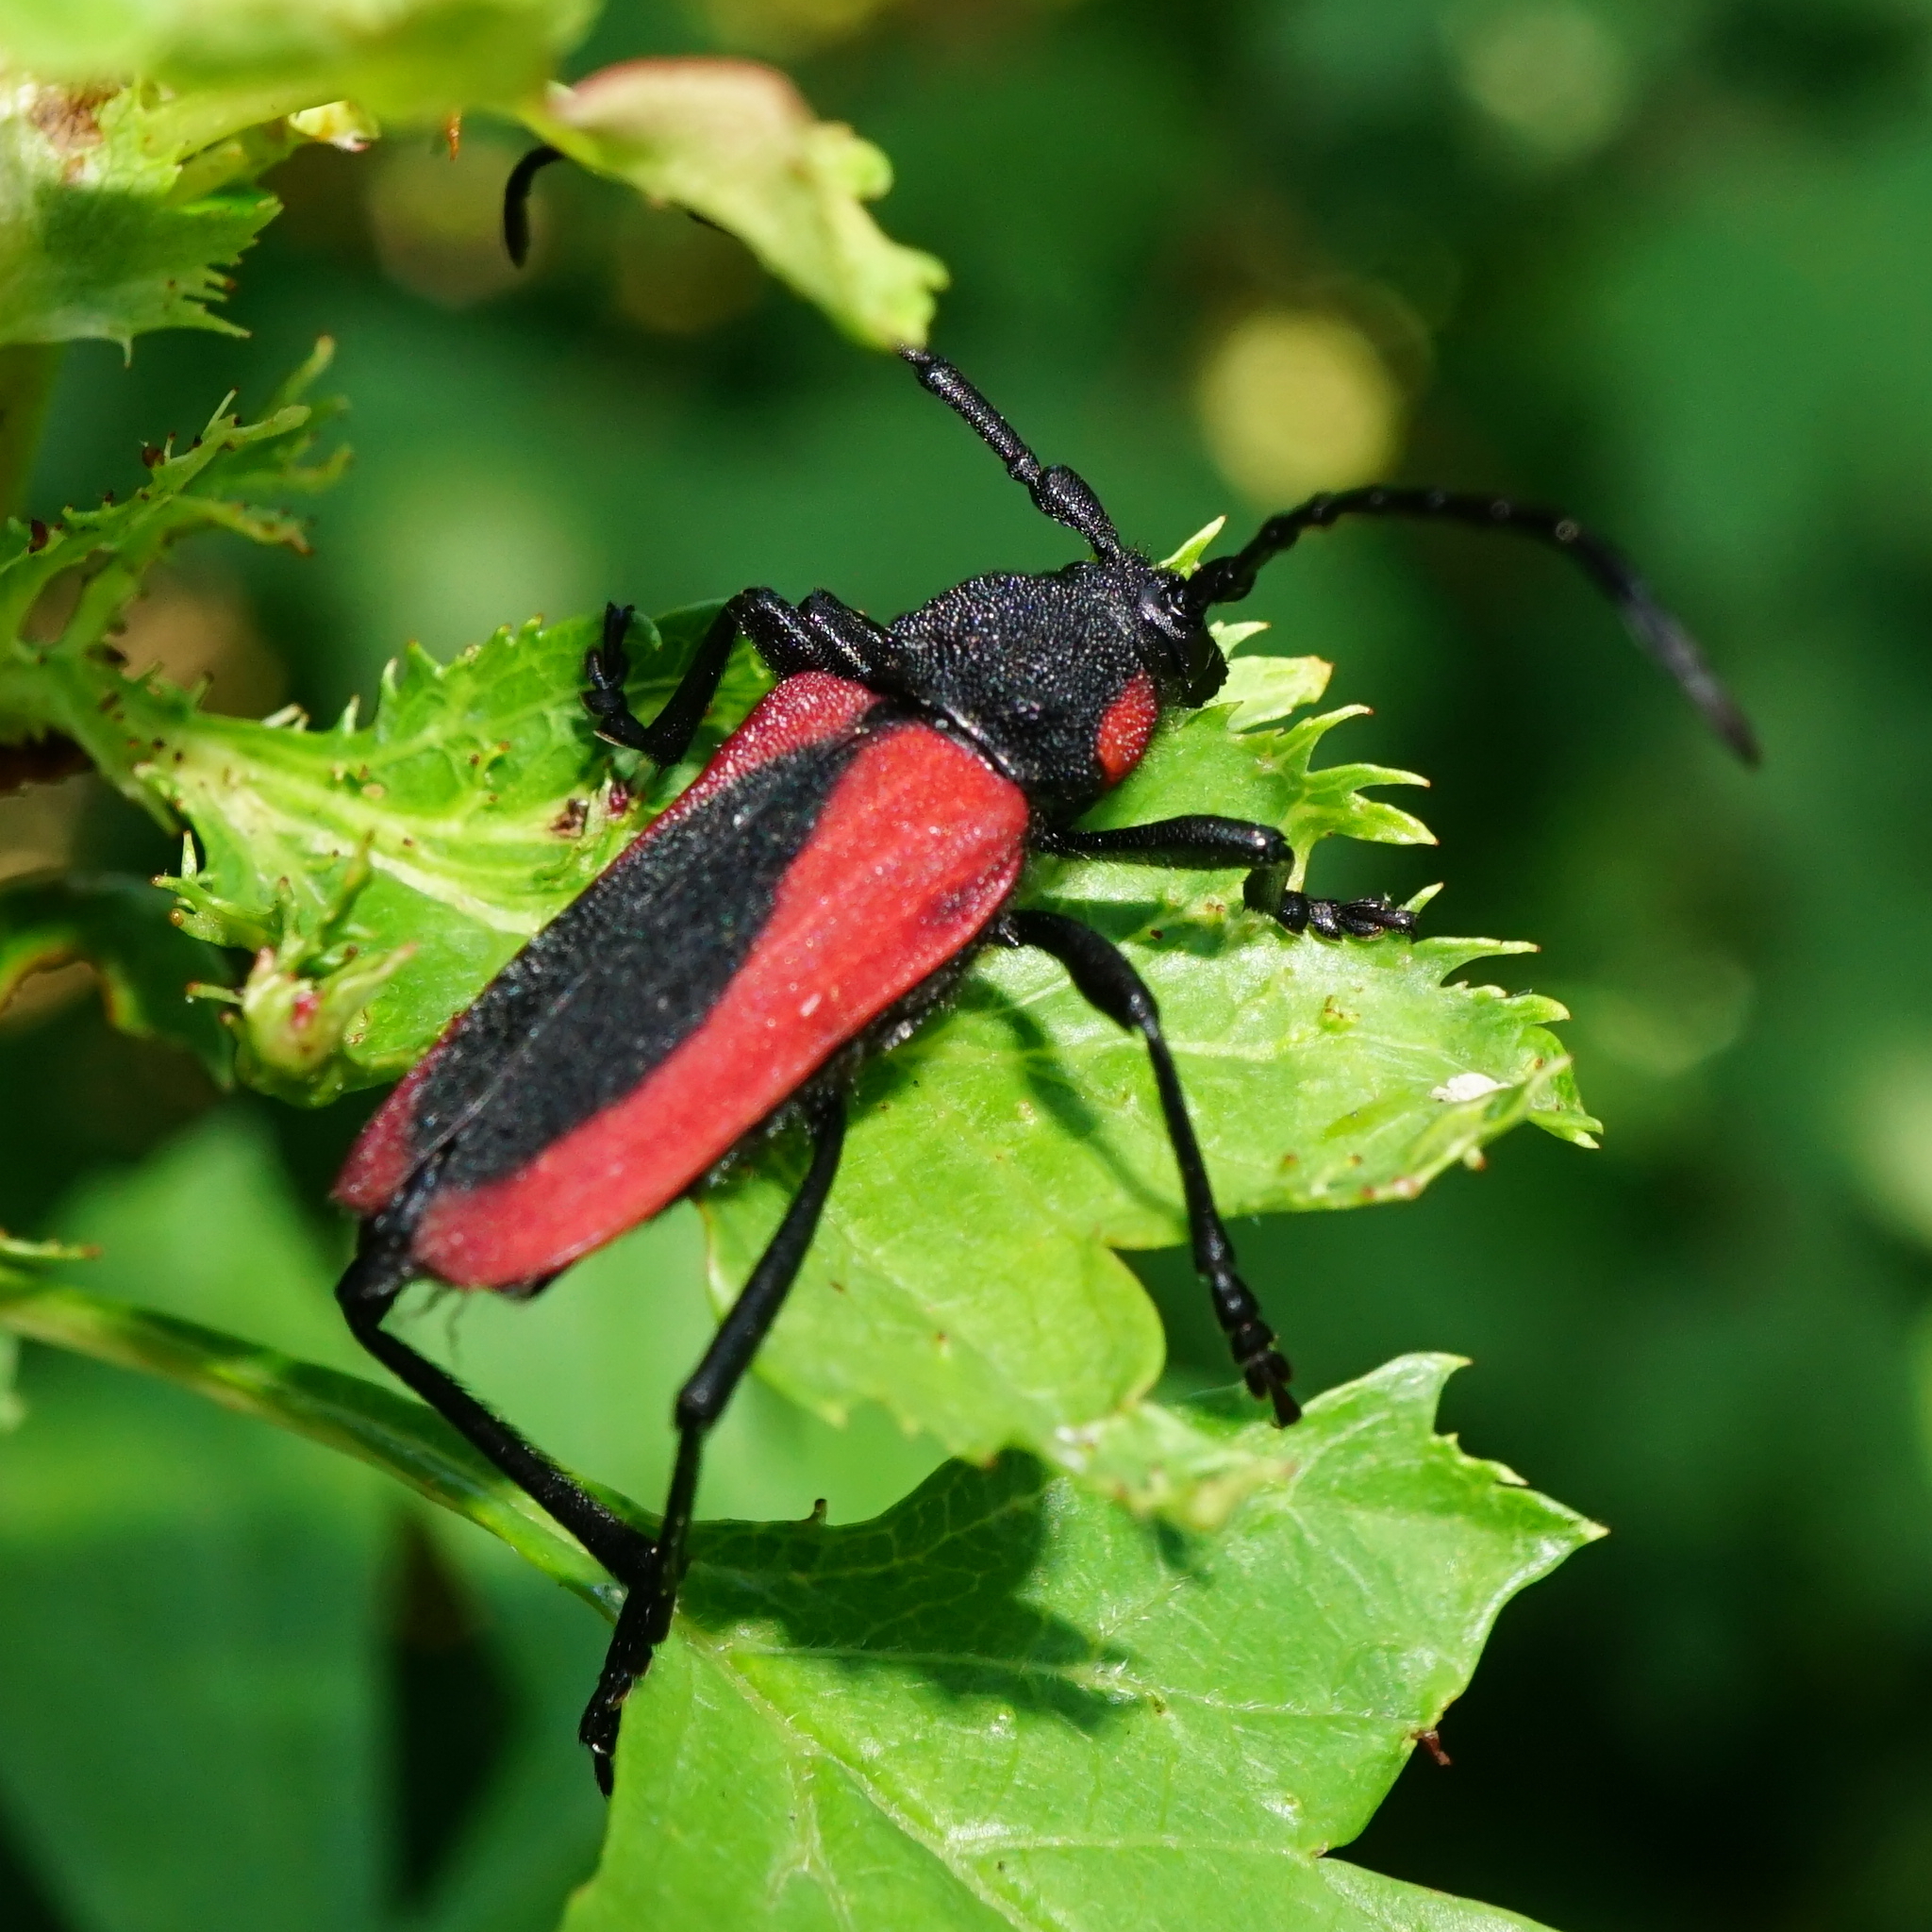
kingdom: Animalia
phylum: Arthropoda
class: Insecta
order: Coleoptera
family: Cerambycidae
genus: Purpuricenus
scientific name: Purpuricenus kaehleri
